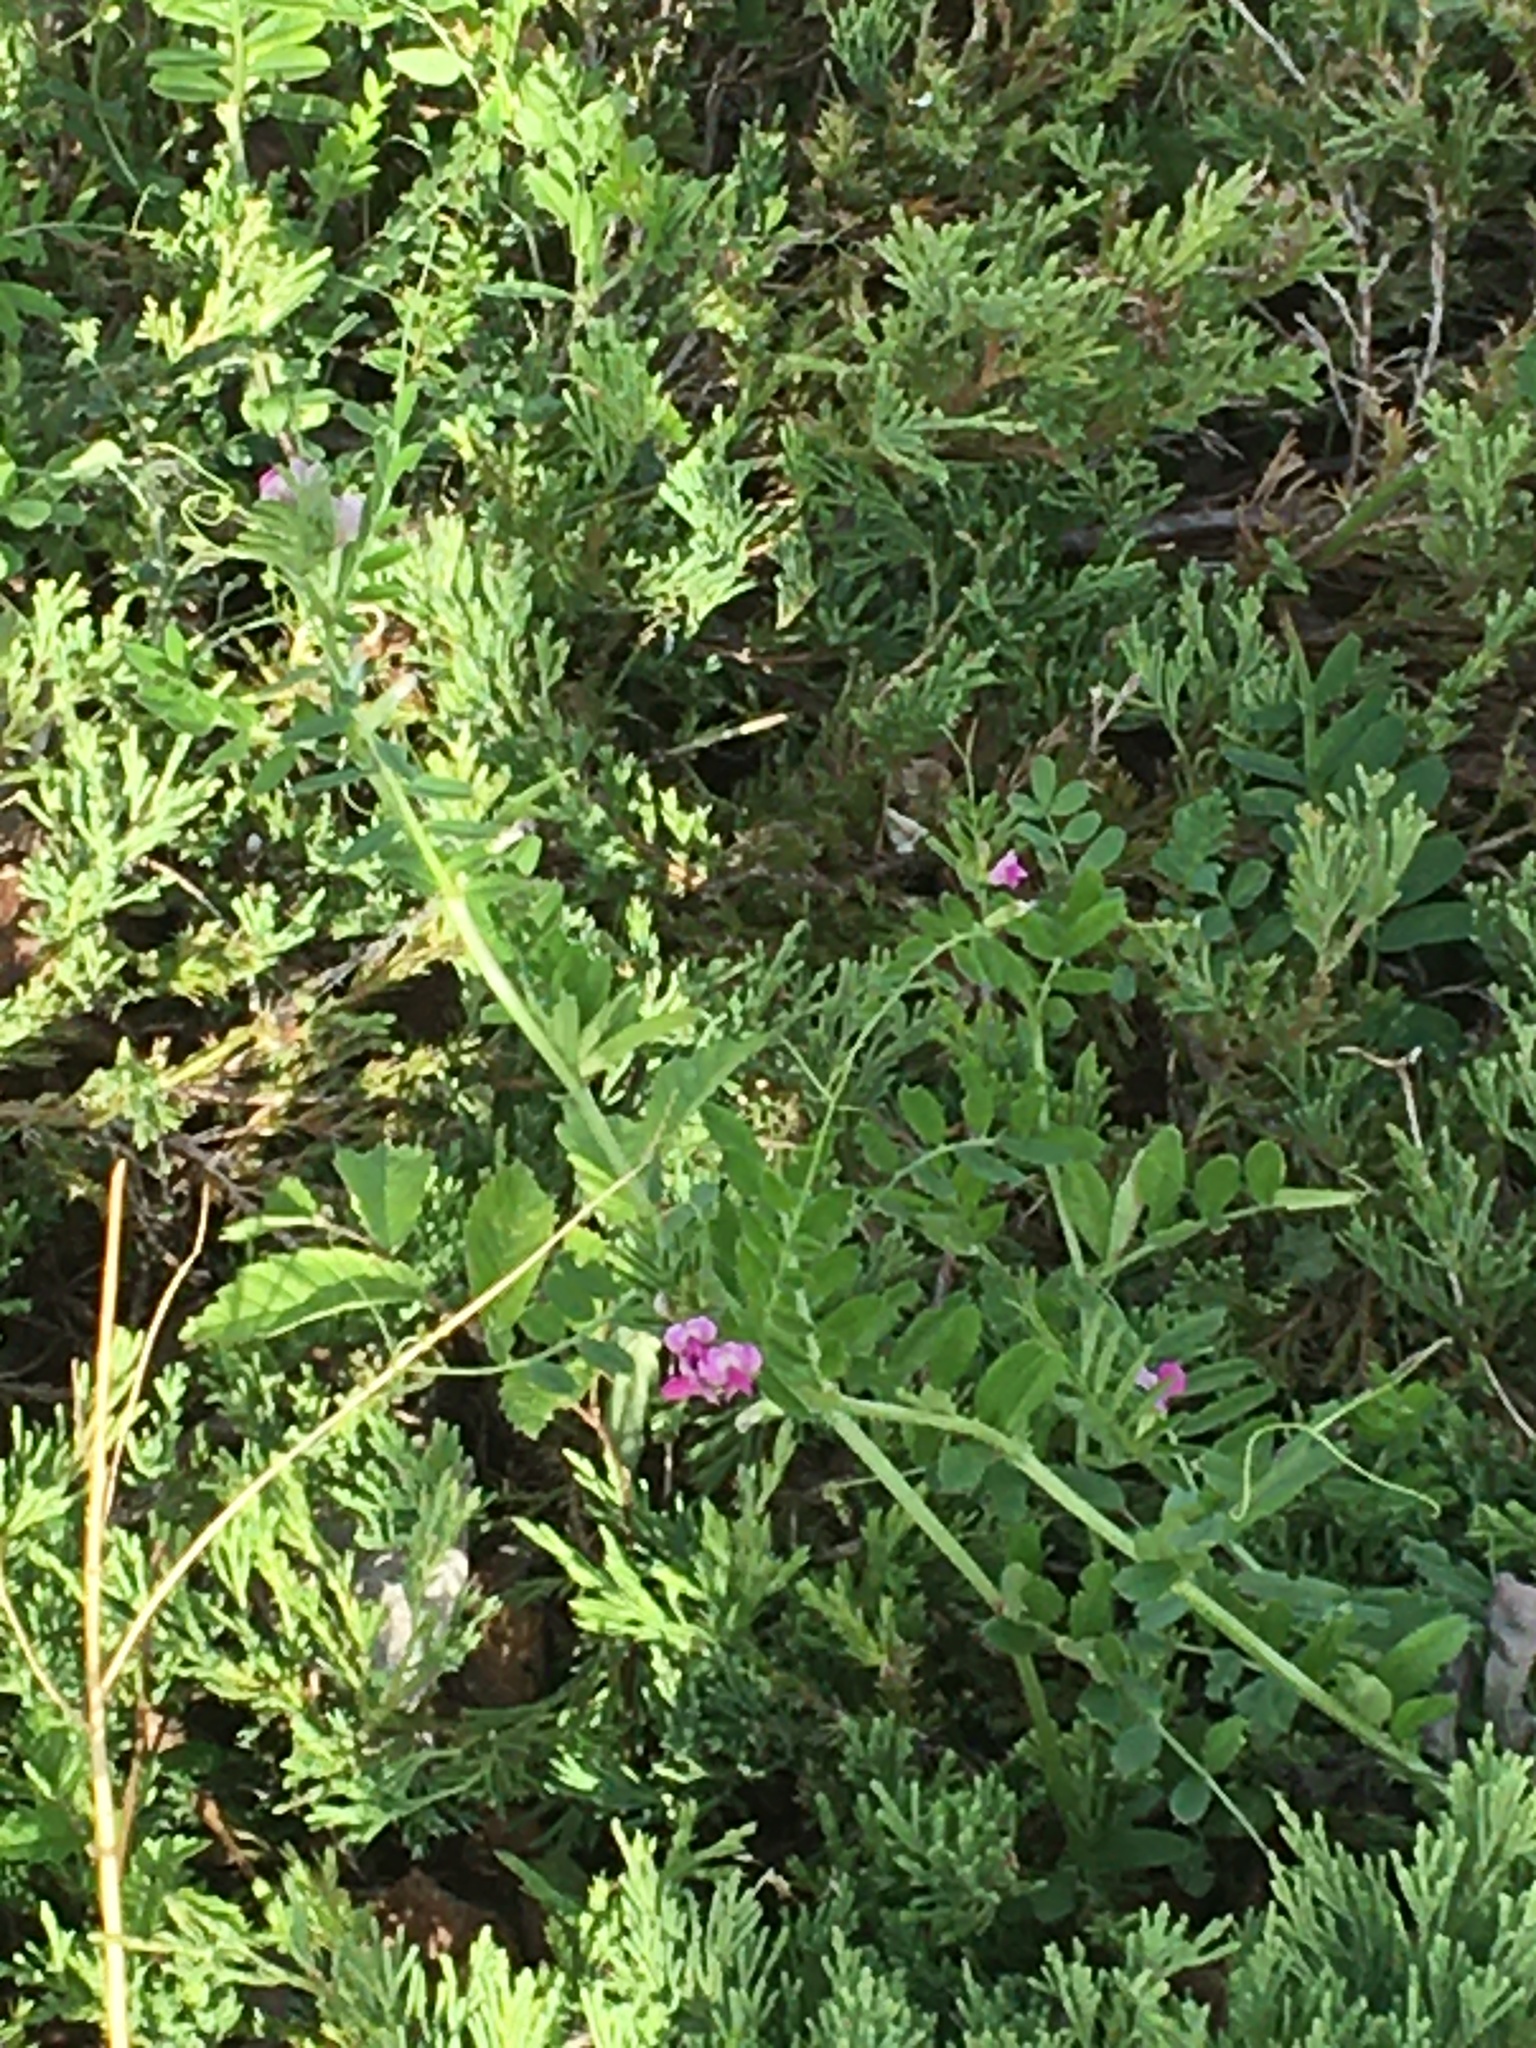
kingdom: Plantae
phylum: Tracheophyta
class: Magnoliopsida
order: Fabales
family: Fabaceae
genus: Vicia
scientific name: Vicia sativa
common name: Garden vetch
